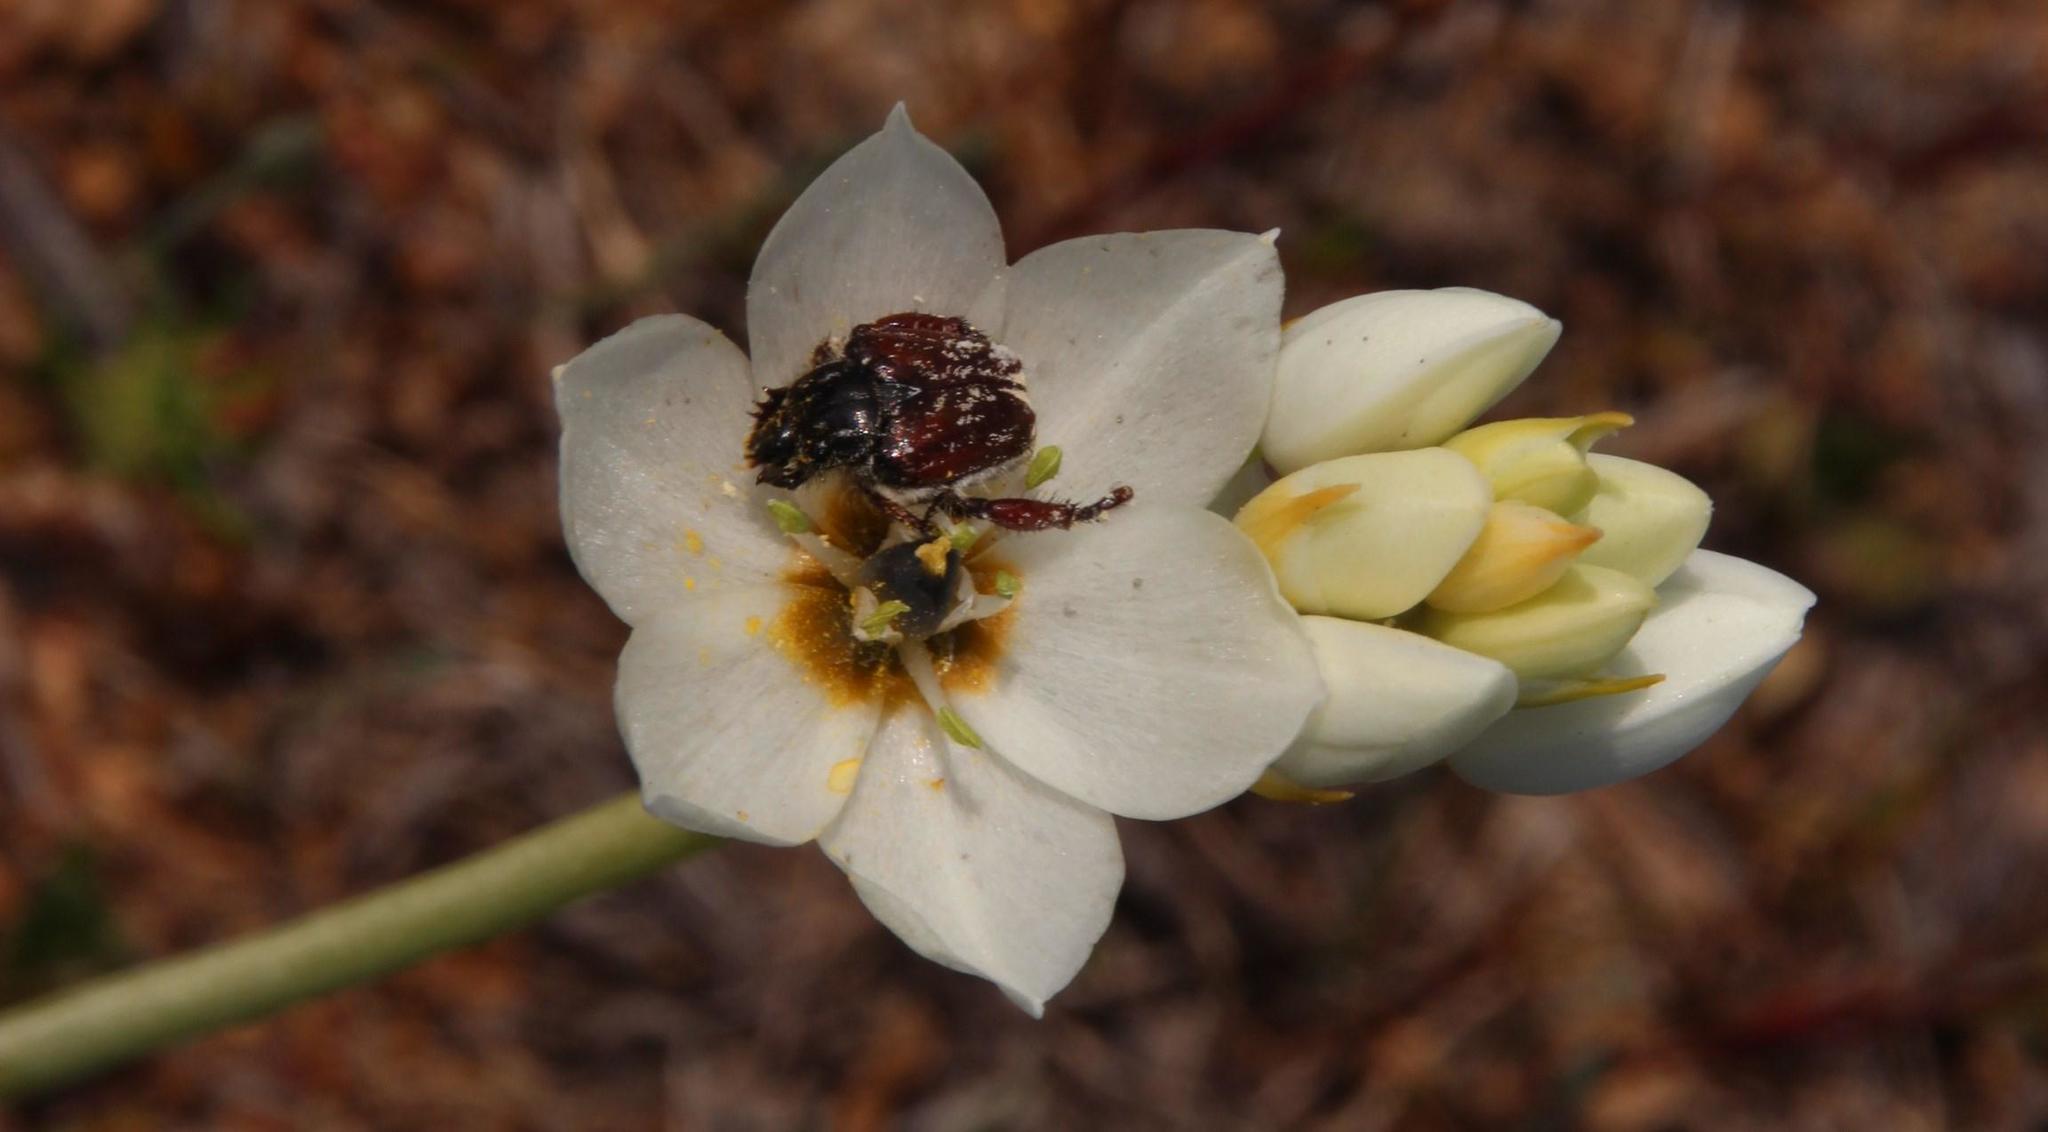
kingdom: Plantae
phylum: Tracheophyta
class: Liliopsida
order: Asparagales
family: Asparagaceae
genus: Ornithogalum
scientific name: Ornithogalum thyrsoides
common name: Chincherinchee
